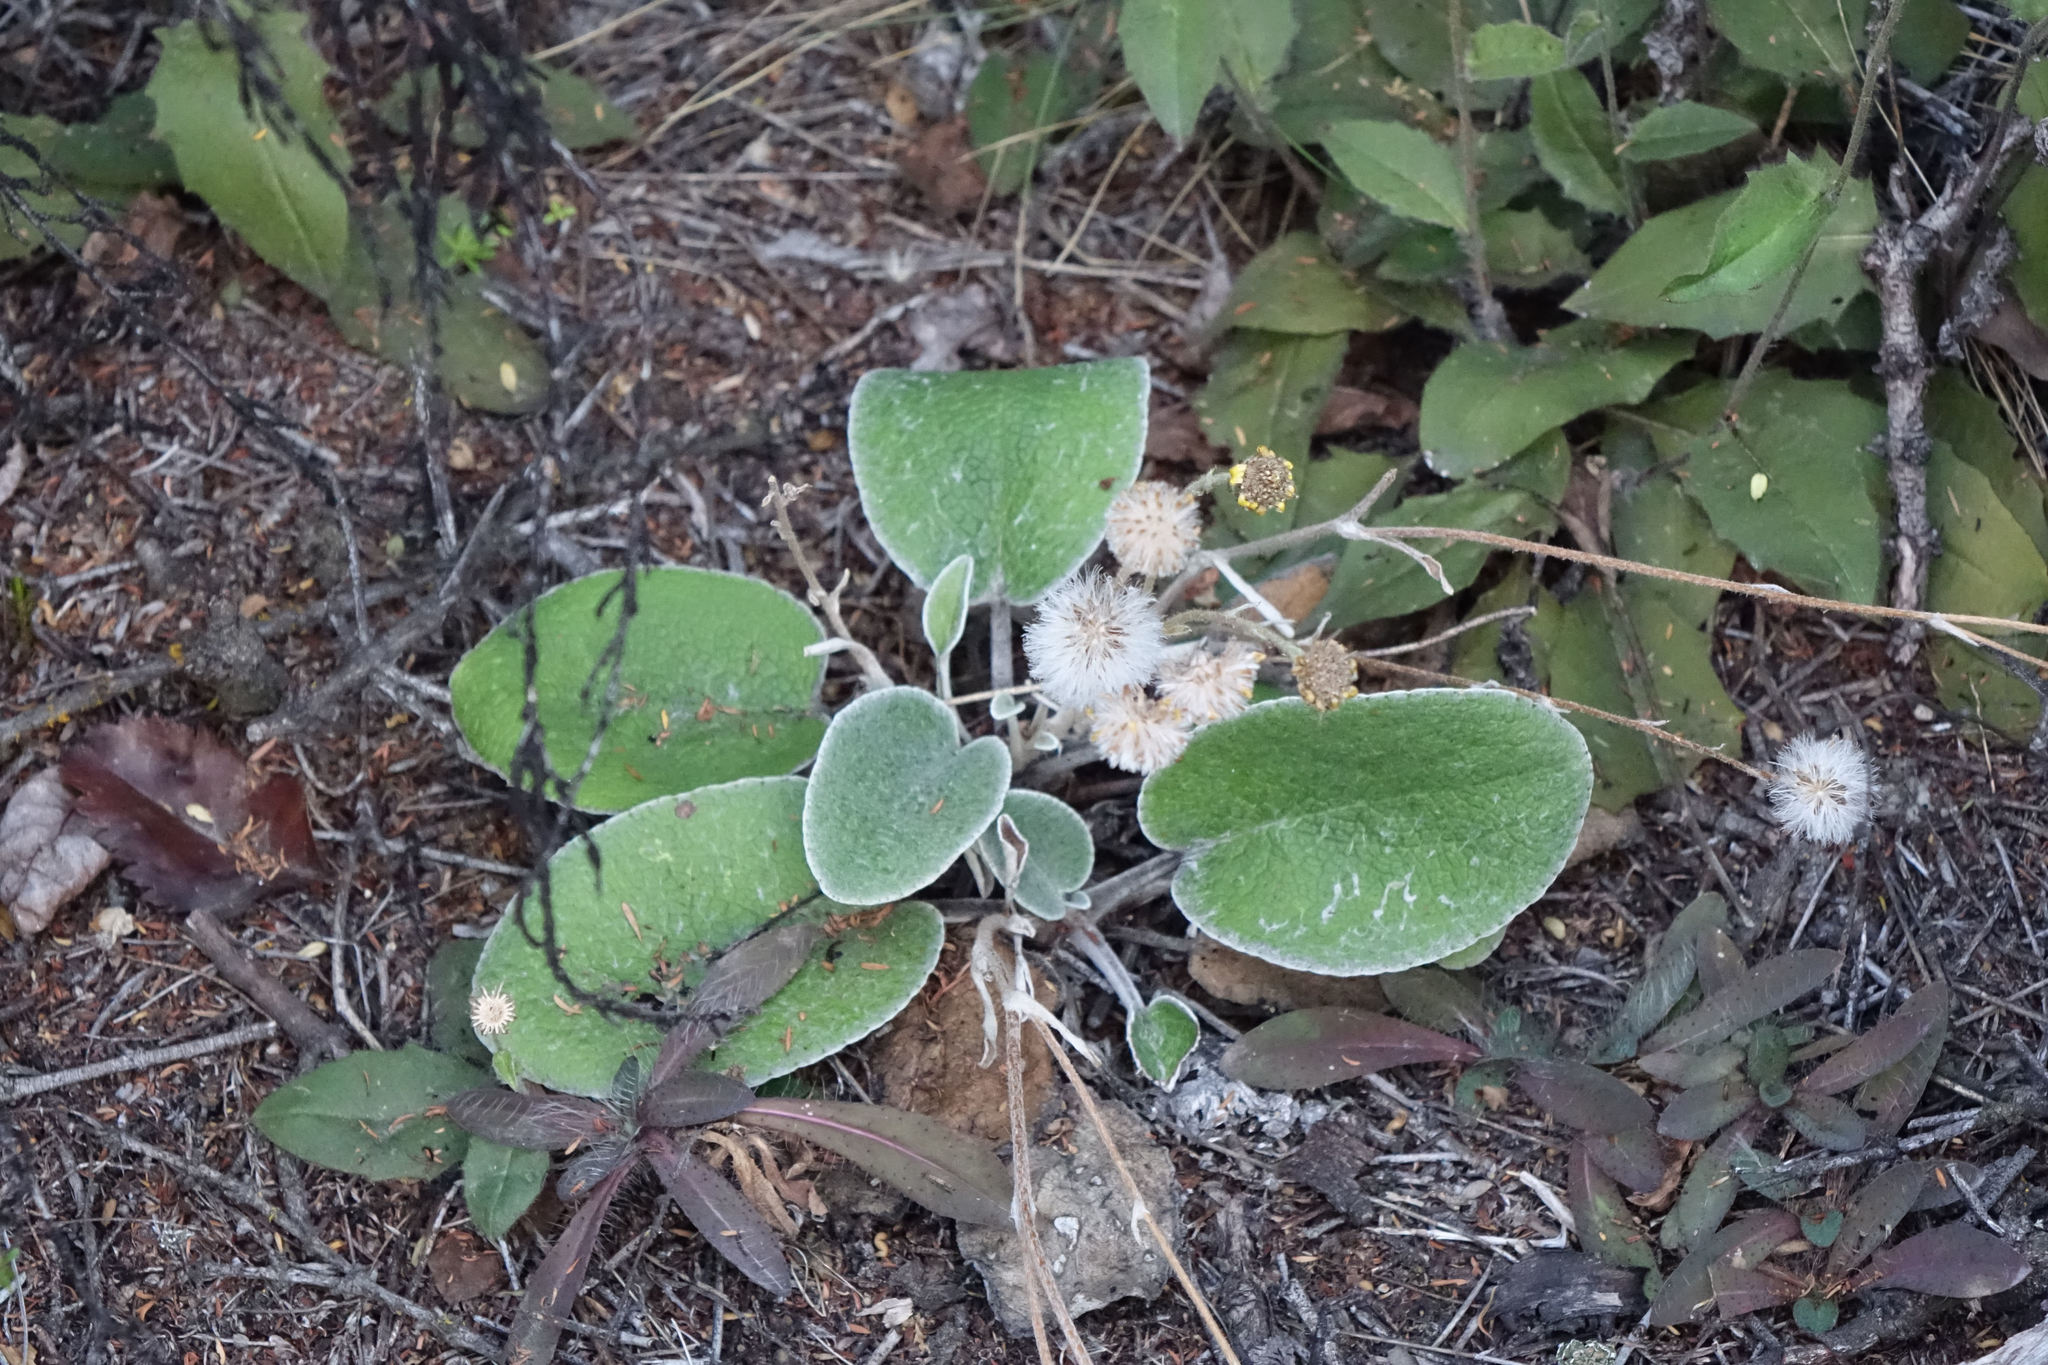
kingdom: Plantae
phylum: Tracheophyta
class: Magnoliopsida
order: Asterales
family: Asteraceae
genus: Brachyglottis
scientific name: Brachyglottis haastii
